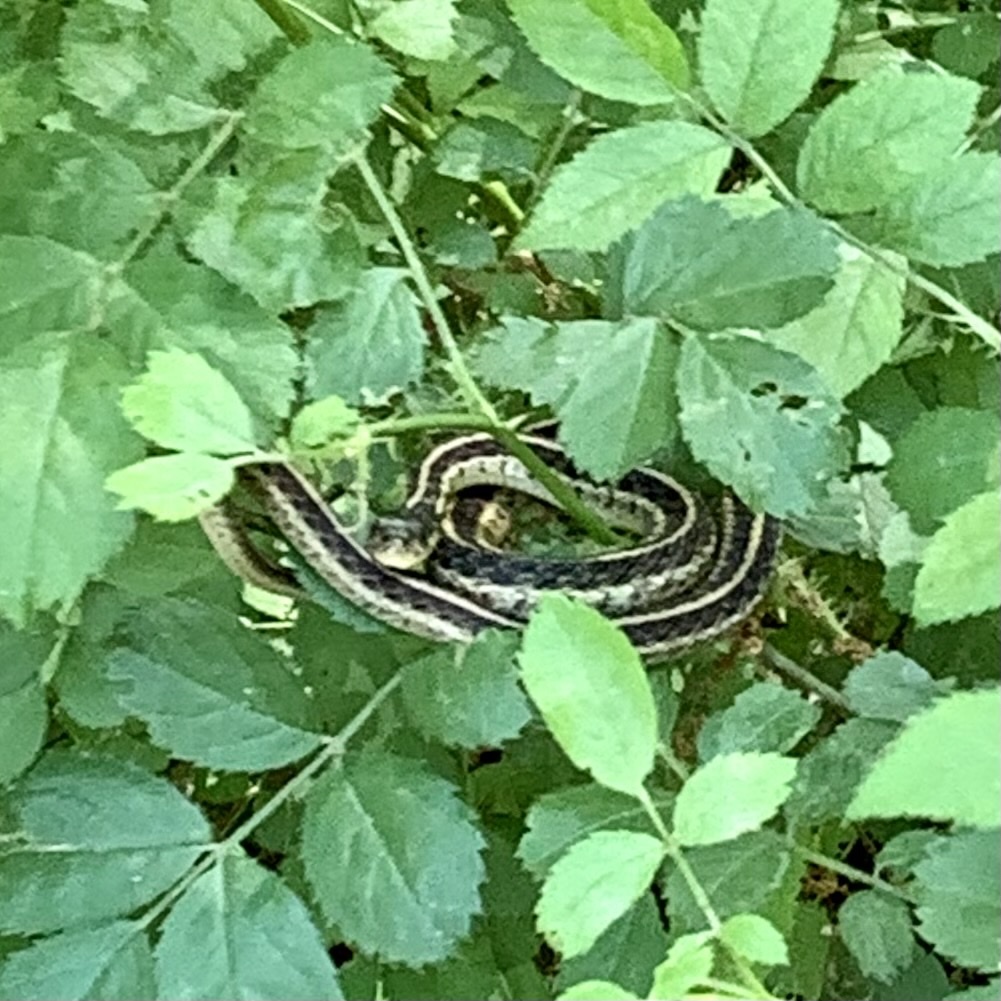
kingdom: Animalia
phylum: Chordata
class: Squamata
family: Colubridae
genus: Thamnophis
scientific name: Thamnophis sirtalis
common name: Common garter snake
